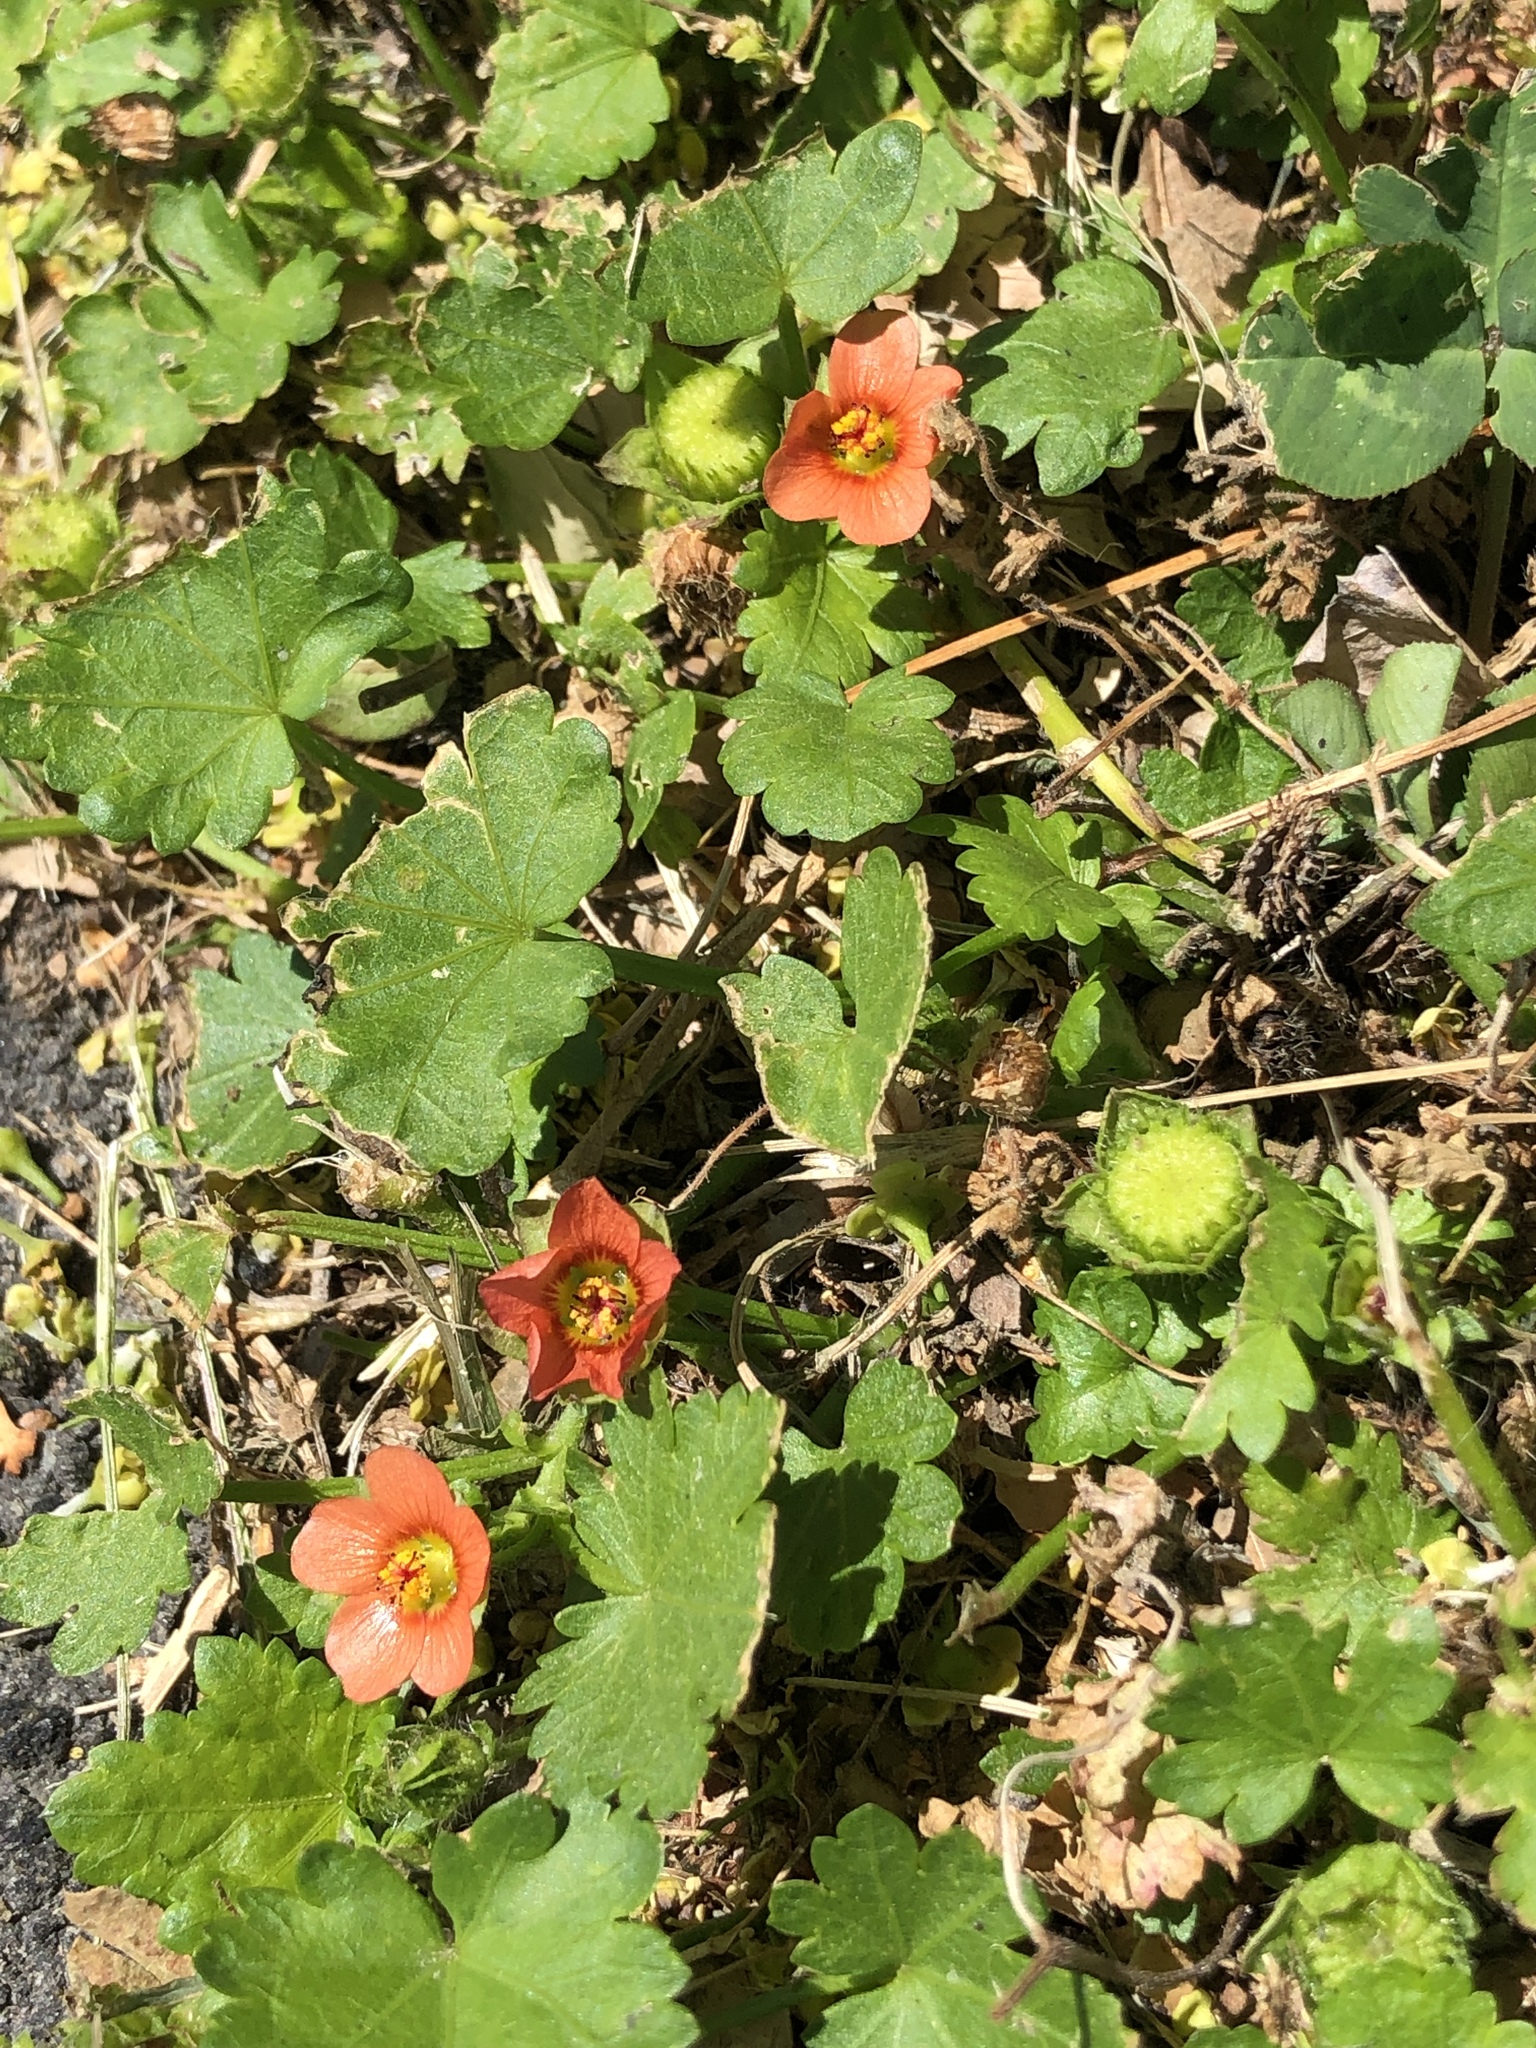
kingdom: Plantae
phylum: Tracheophyta
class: Magnoliopsida
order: Malvales
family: Malvaceae
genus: Modiola
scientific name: Modiola caroliniana
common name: Carolina bristlemallow
